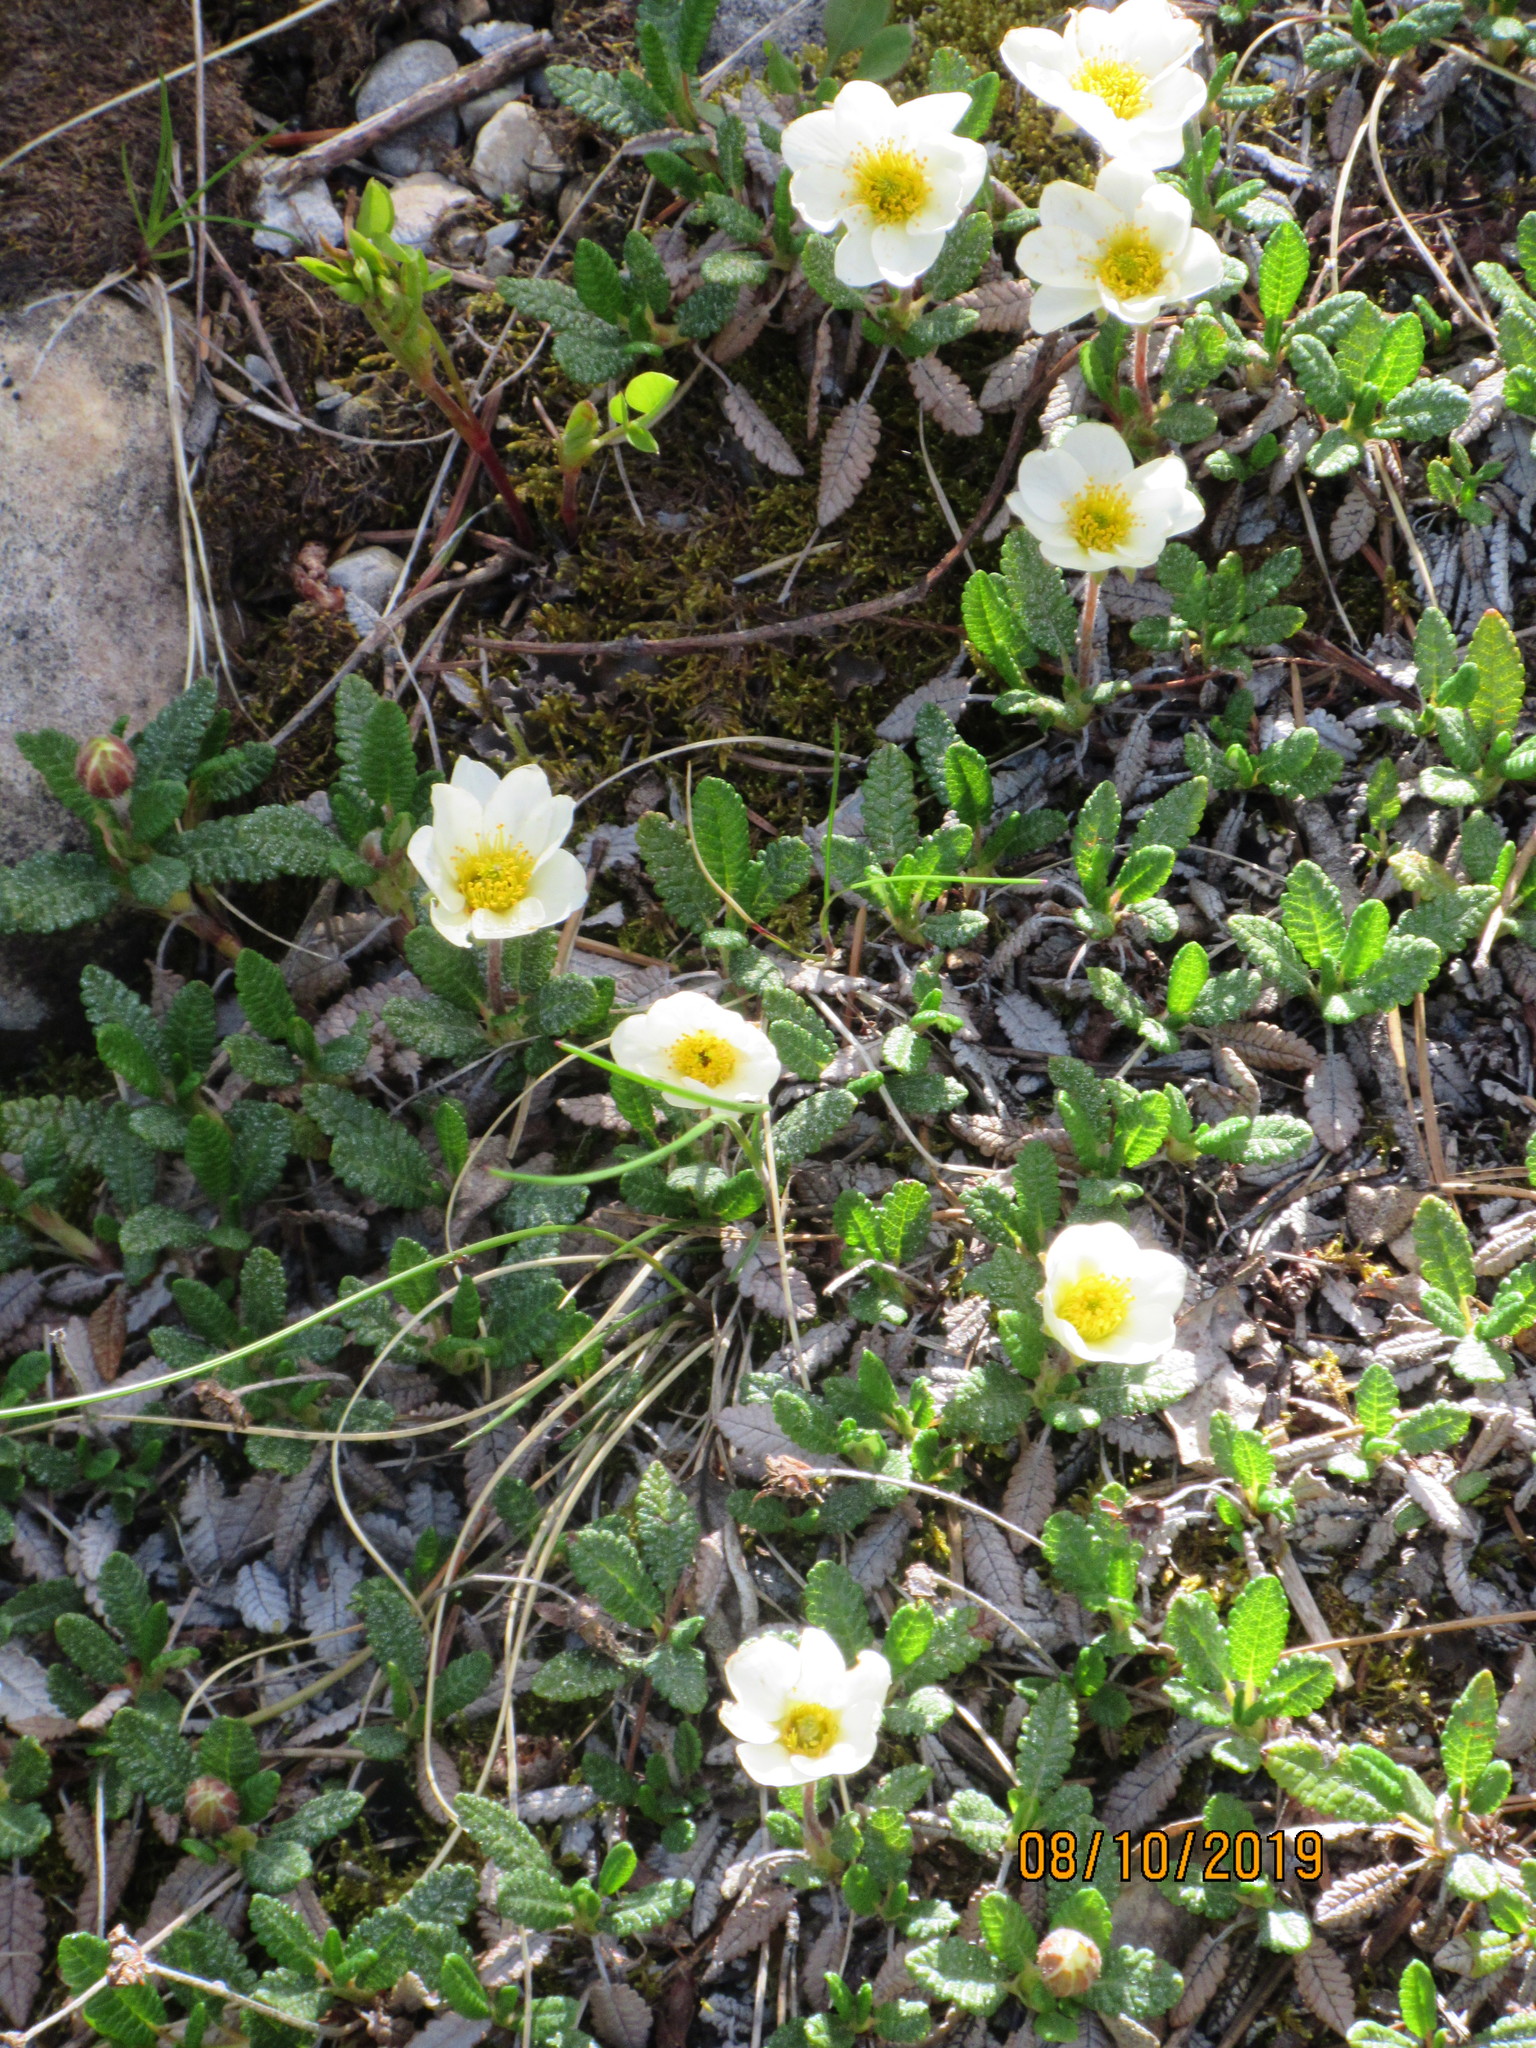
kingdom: Plantae
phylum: Tracheophyta
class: Magnoliopsida
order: Rosales
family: Rosaceae
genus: Dryas
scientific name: Dryas octopetala
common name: Eight-petal mountain-avens
